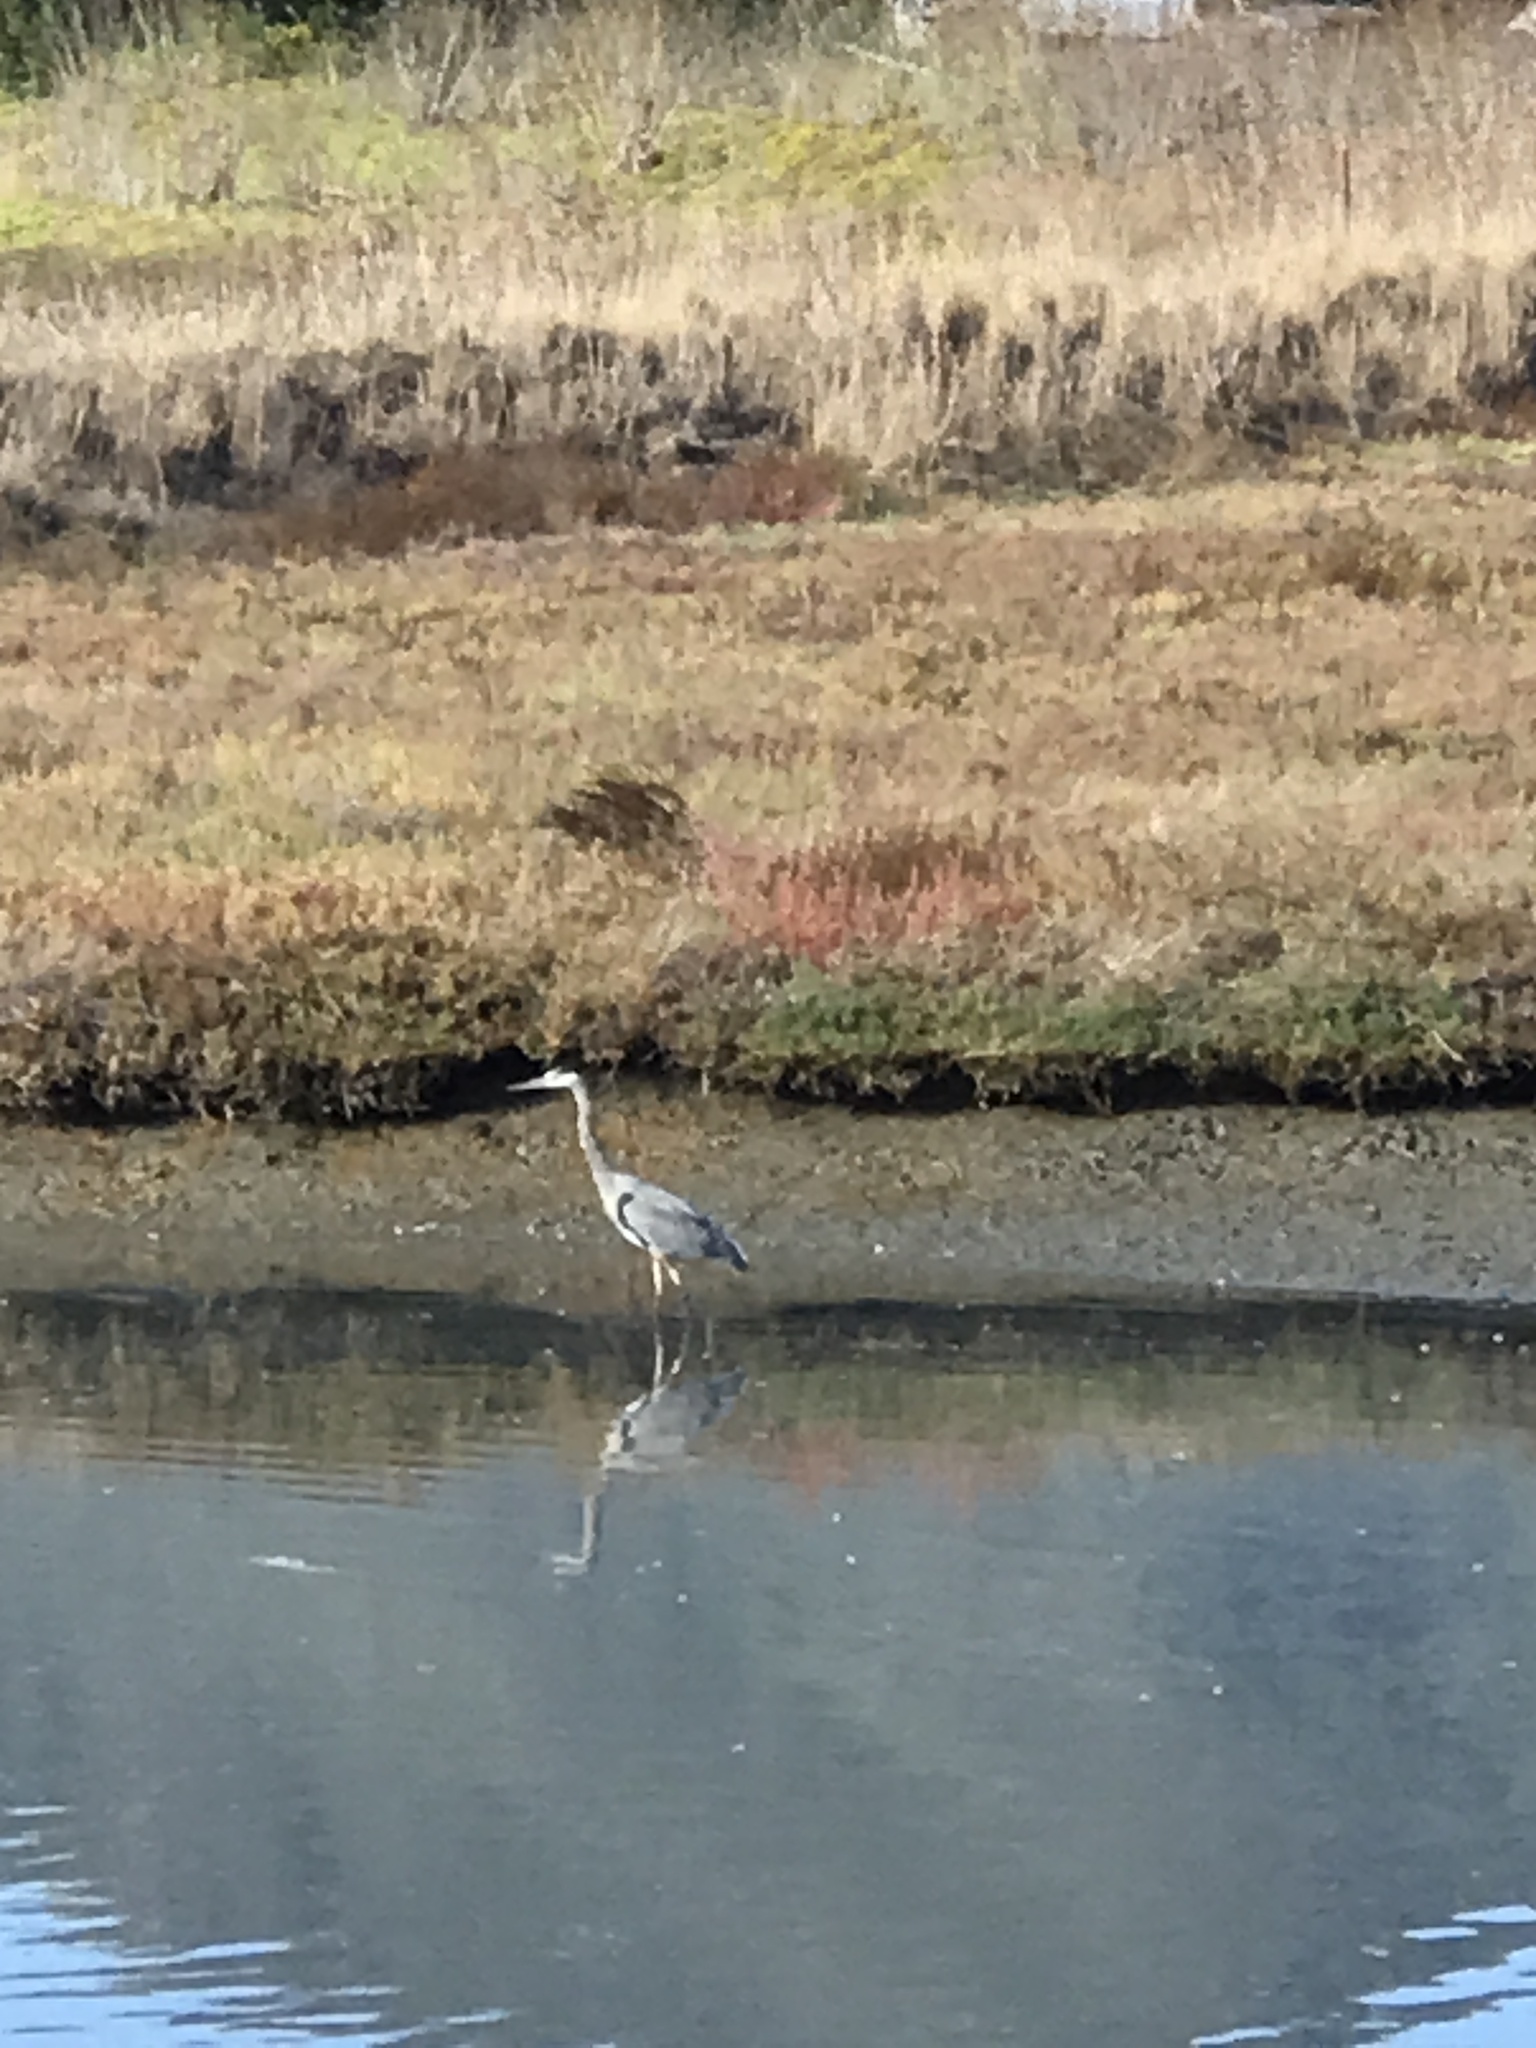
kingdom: Animalia
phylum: Chordata
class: Aves
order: Pelecaniformes
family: Ardeidae
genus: Ardea
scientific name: Ardea herodias
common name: Great blue heron
